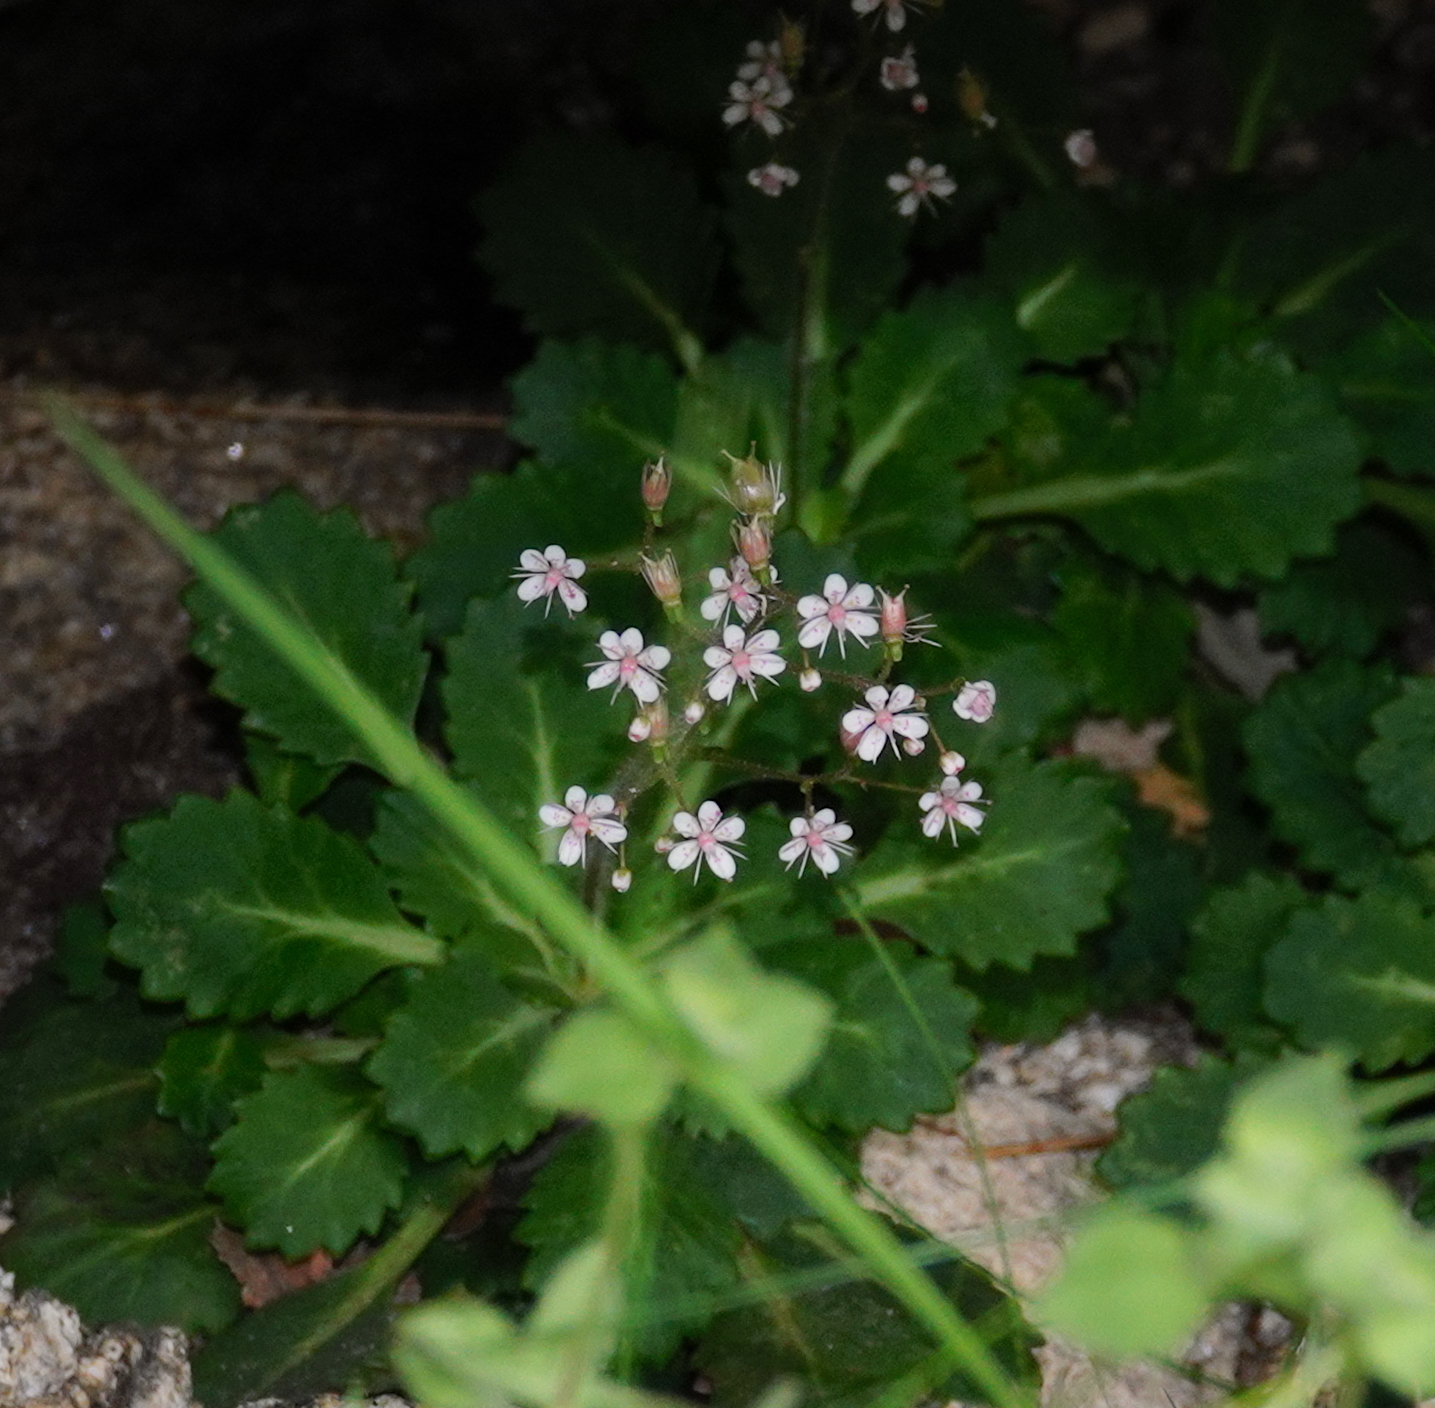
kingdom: Plantae
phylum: Tracheophyta
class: Magnoliopsida
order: Saxifragales
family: Saxifragaceae
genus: Saxifraga
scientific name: Saxifraga spathularis
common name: St patrick's-cabbage
